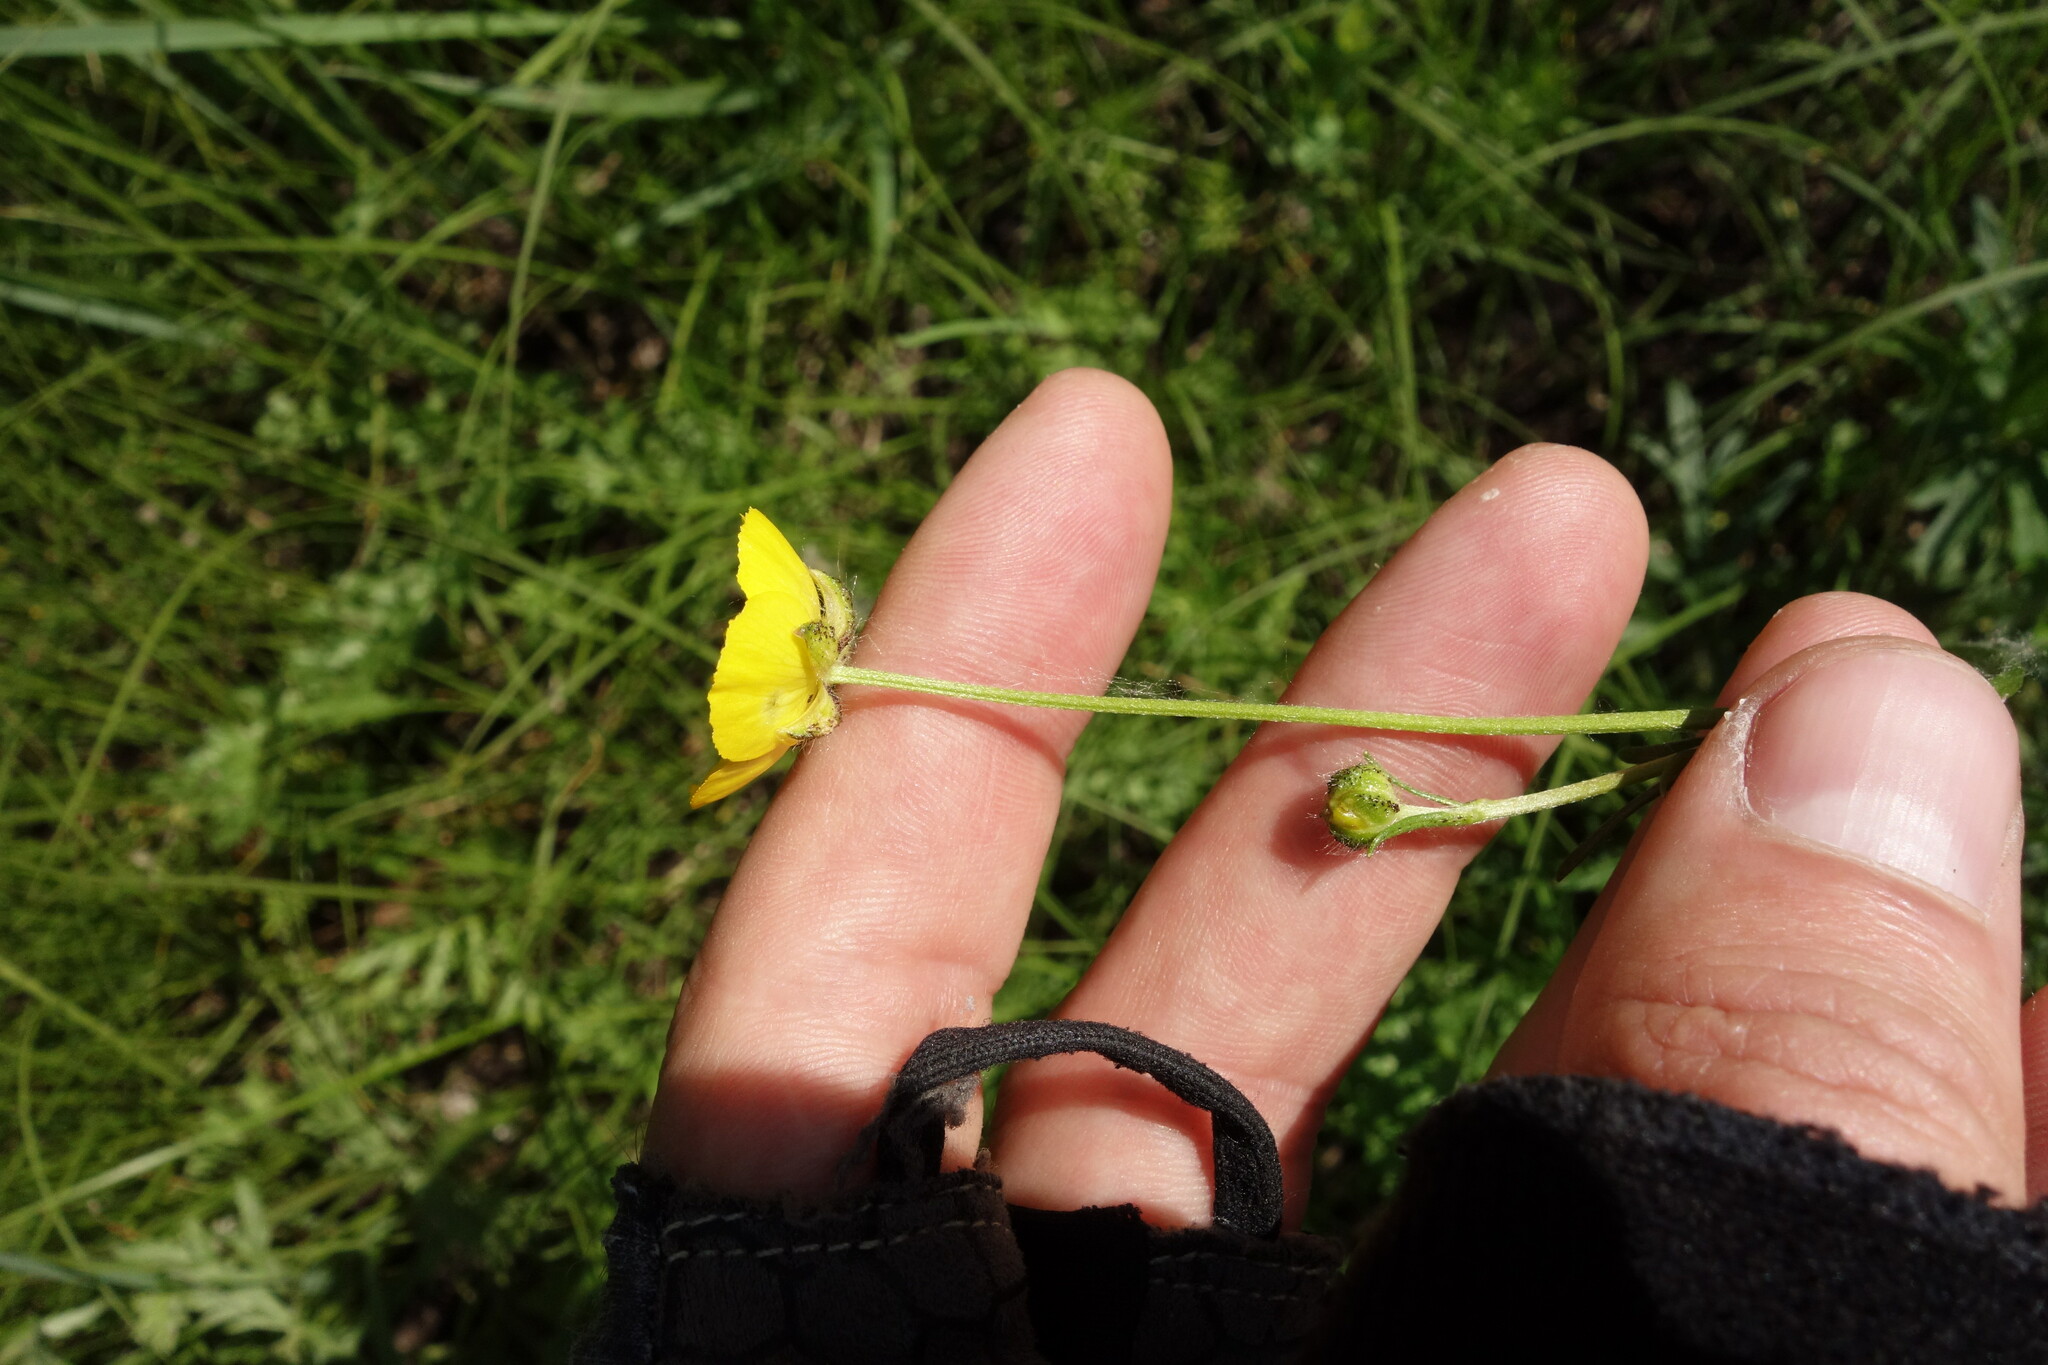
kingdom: Plantae
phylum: Tracheophyta
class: Magnoliopsida
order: Ranunculales
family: Ranunculaceae
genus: Ranunculus
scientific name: Ranunculus polyanthemos
